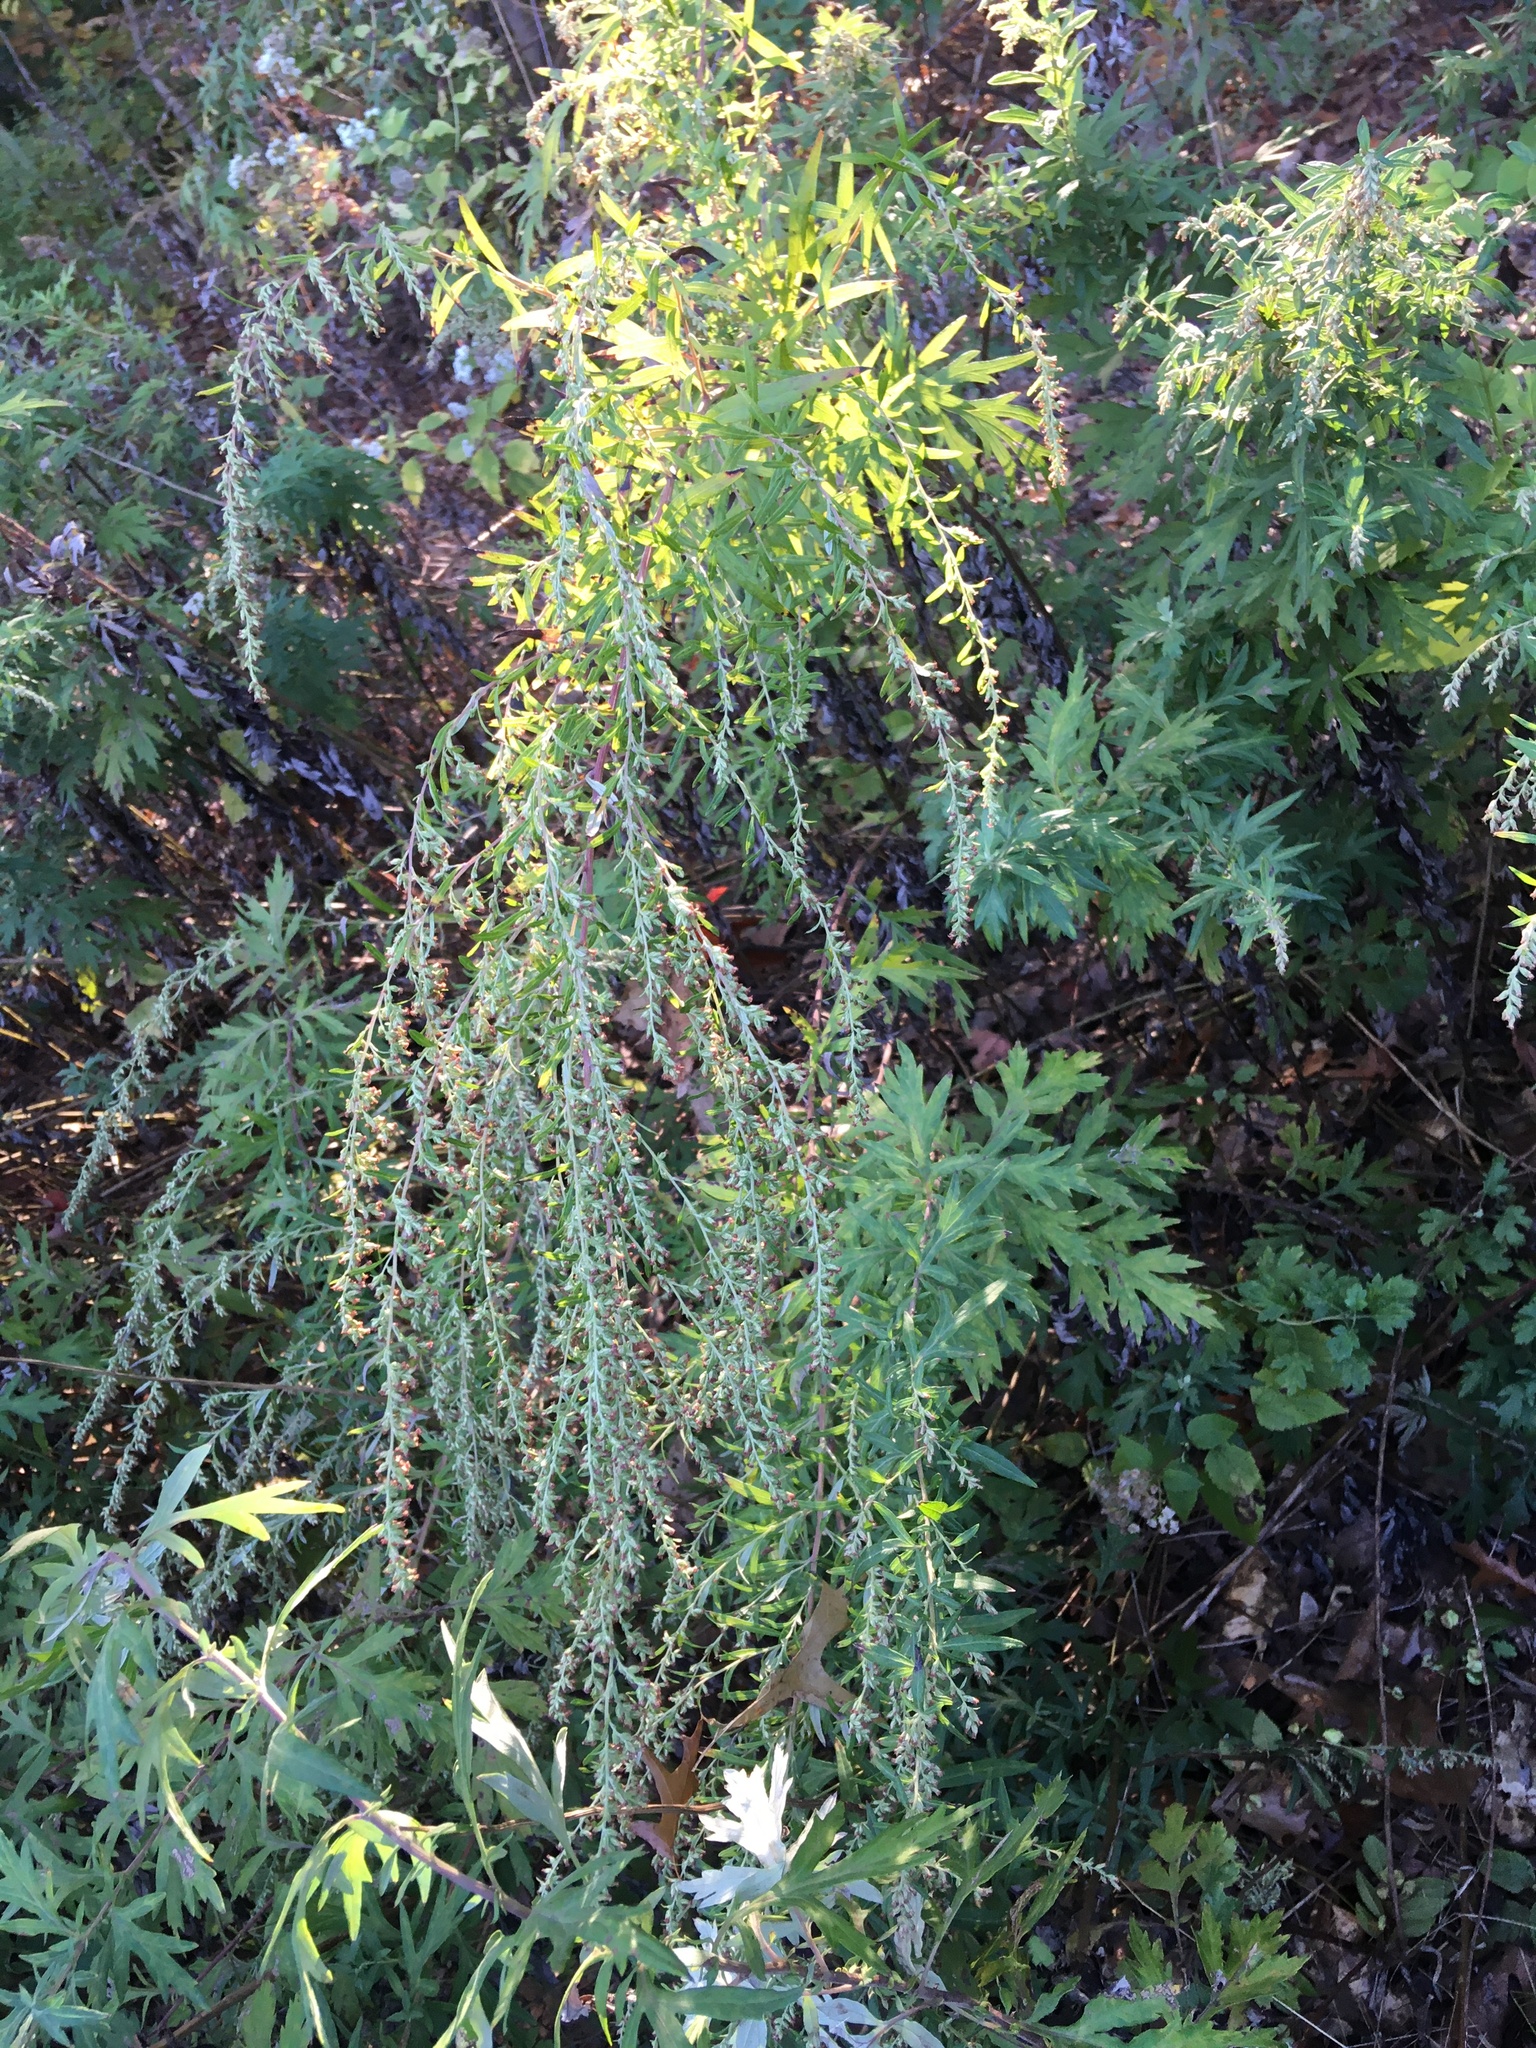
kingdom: Plantae
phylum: Tracheophyta
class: Magnoliopsida
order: Asterales
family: Asteraceae
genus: Artemisia
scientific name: Artemisia vulgaris
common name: Mugwort
